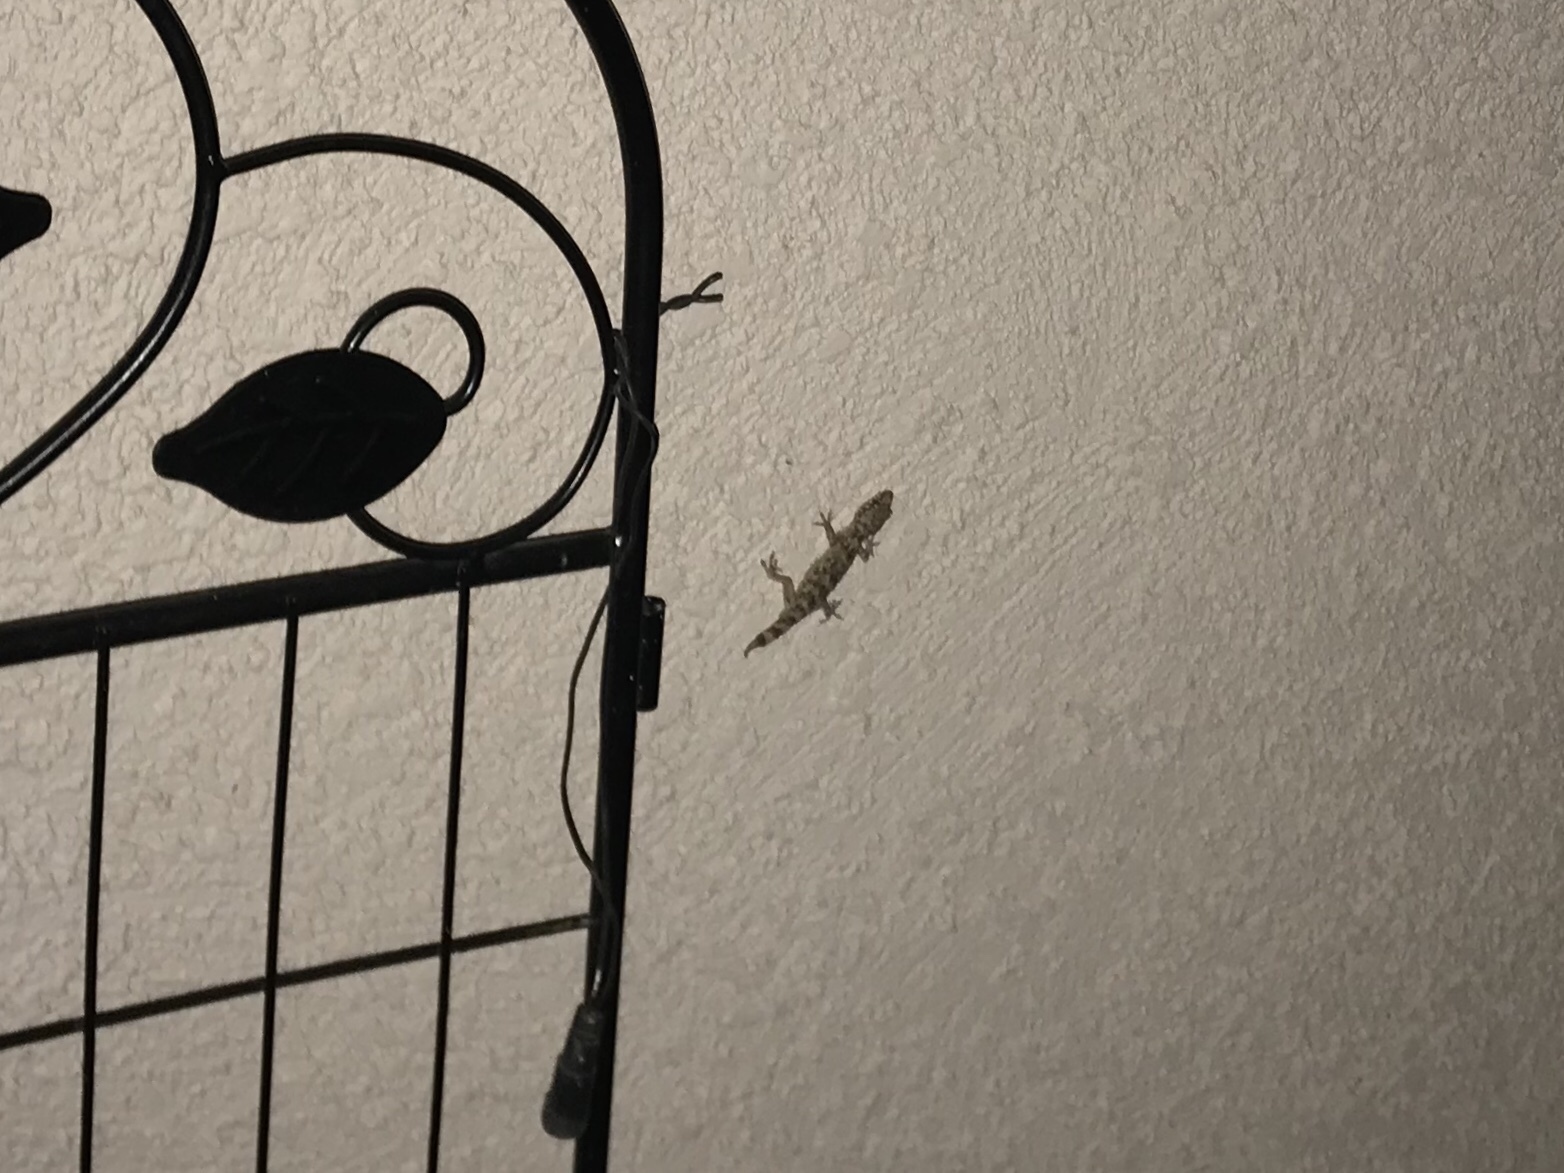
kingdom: Animalia
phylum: Chordata
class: Squamata
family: Gekkonidae
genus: Hemidactylus
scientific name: Hemidactylus turcicus
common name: Turkish gecko
